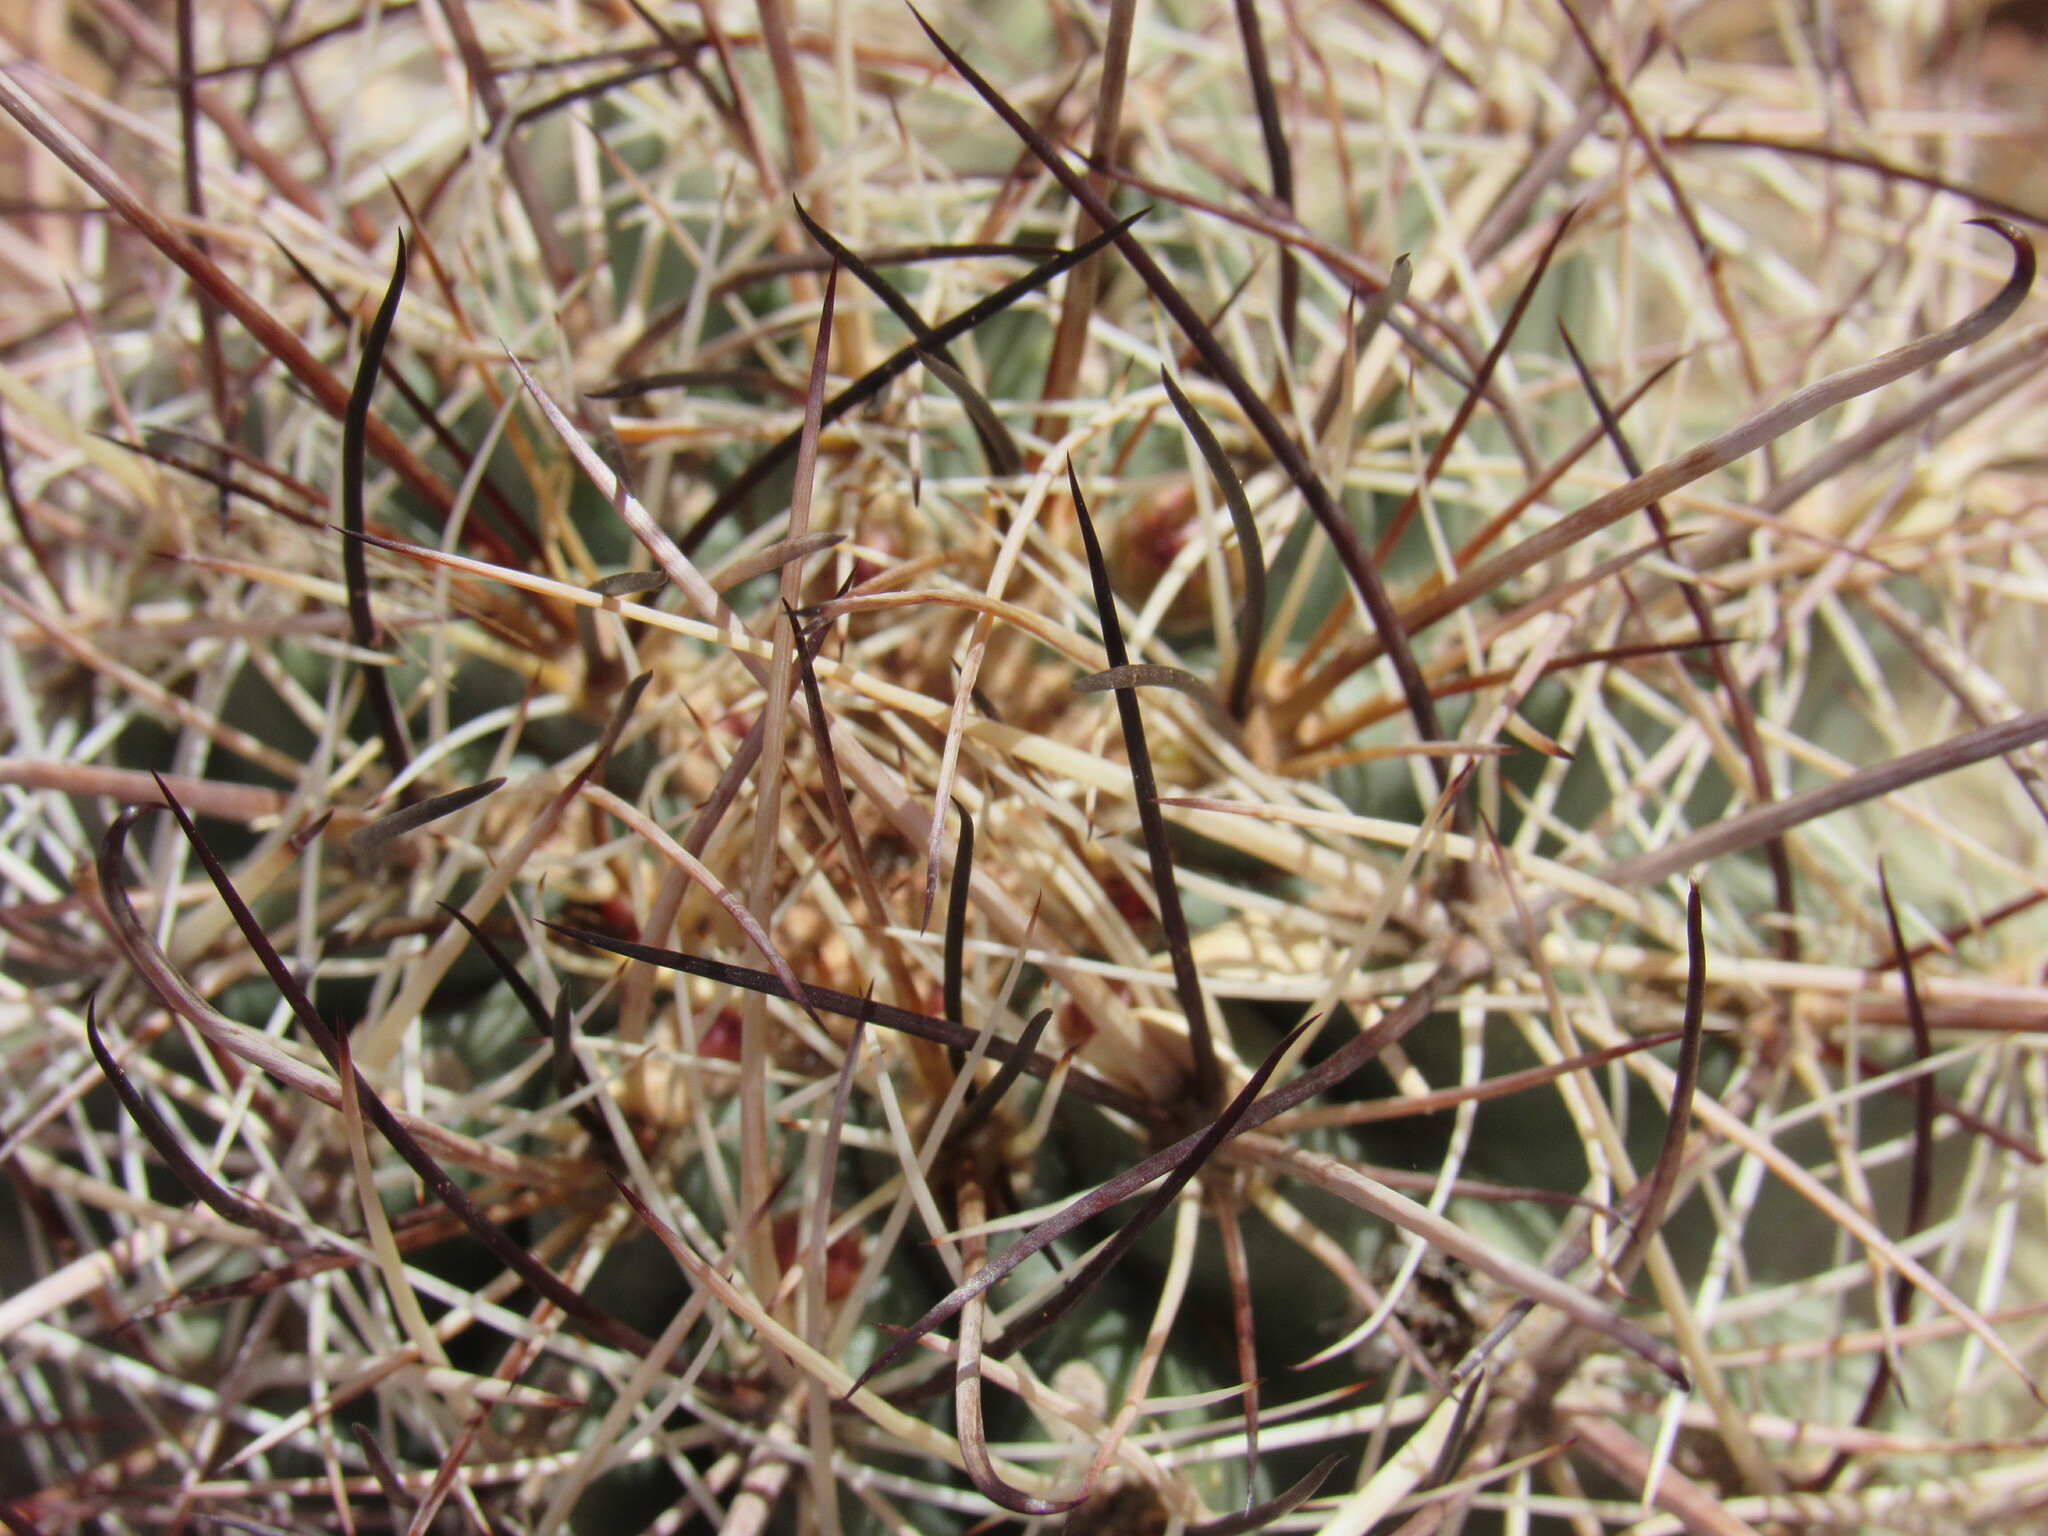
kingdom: Plantae
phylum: Tracheophyta
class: Magnoliopsida
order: Caryophyllales
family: Cactaceae
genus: Sclerocactus
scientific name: Sclerocactus parviflorus
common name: Small-flower fishhook cactus
